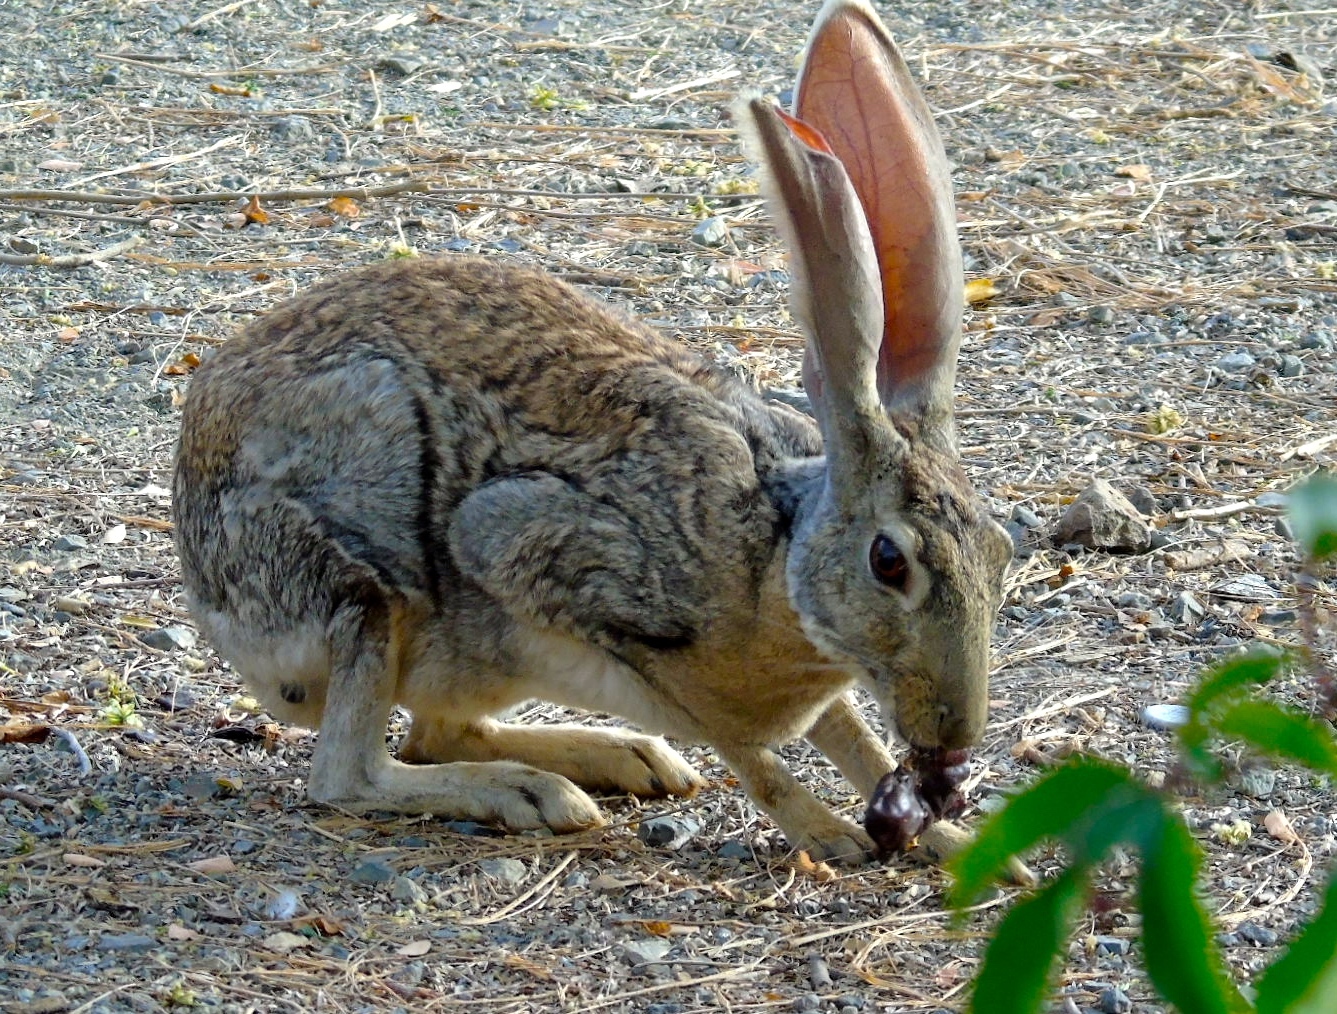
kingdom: Animalia
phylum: Chordata
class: Mammalia
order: Lagomorpha
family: Leporidae
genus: Lepus
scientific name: Lepus alleni
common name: Antelope jackrabbit
